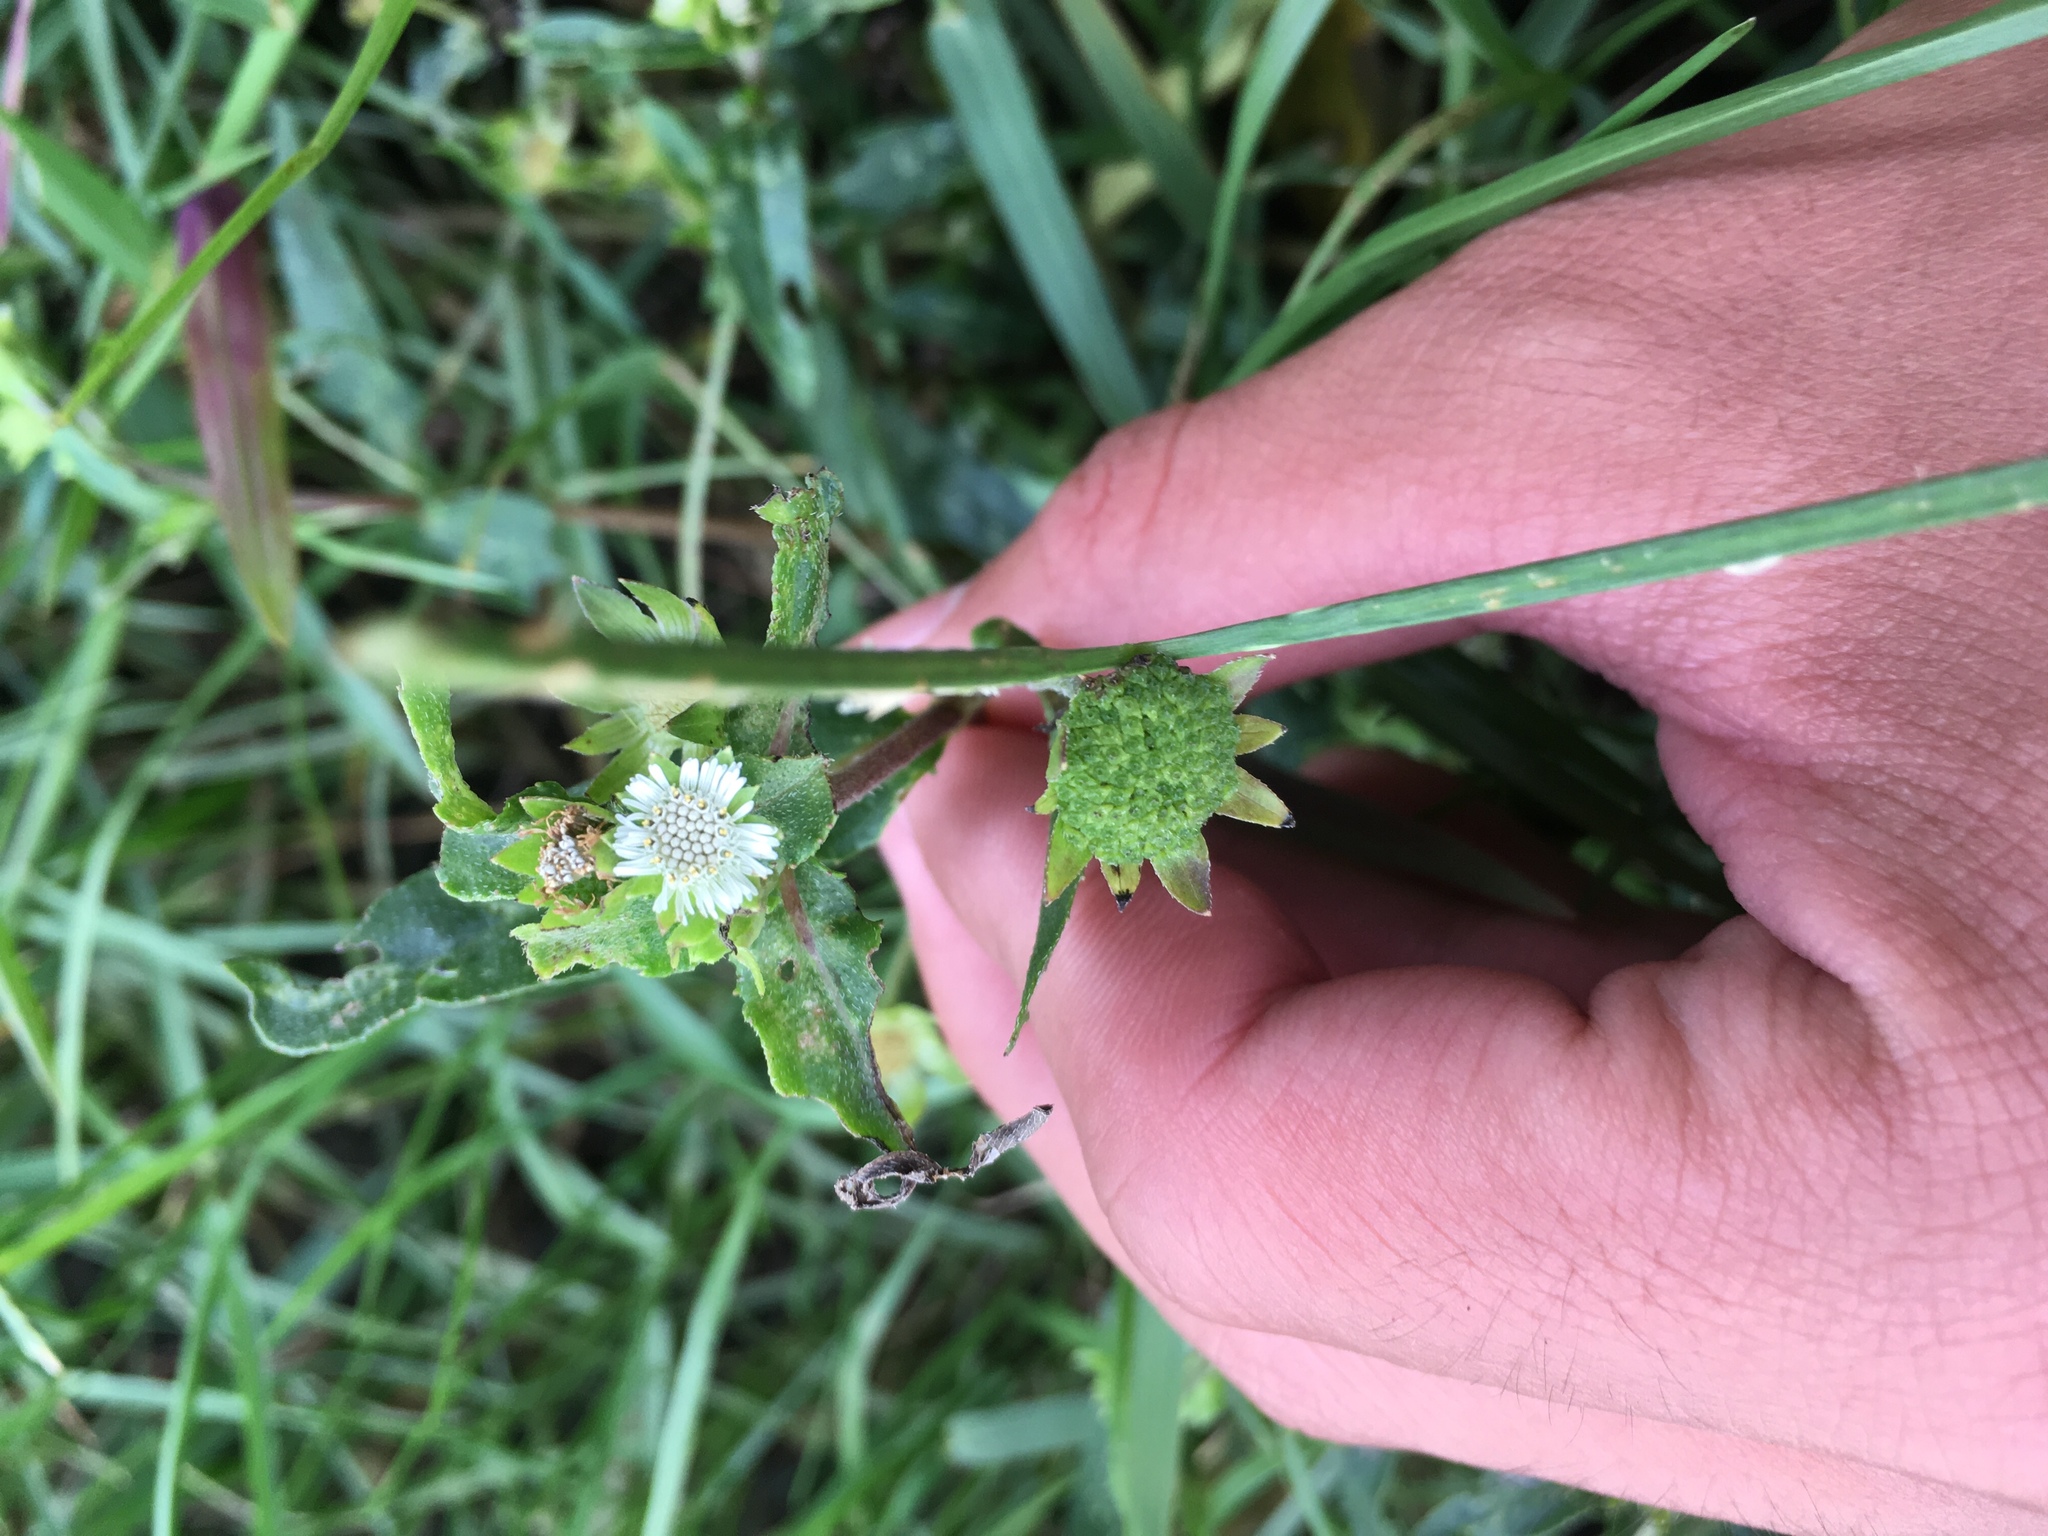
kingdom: Plantae
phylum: Tracheophyta
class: Magnoliopsida
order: Asterales
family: Asteraceae
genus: Eclipta
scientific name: Eclipta prostrata
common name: False daisy
